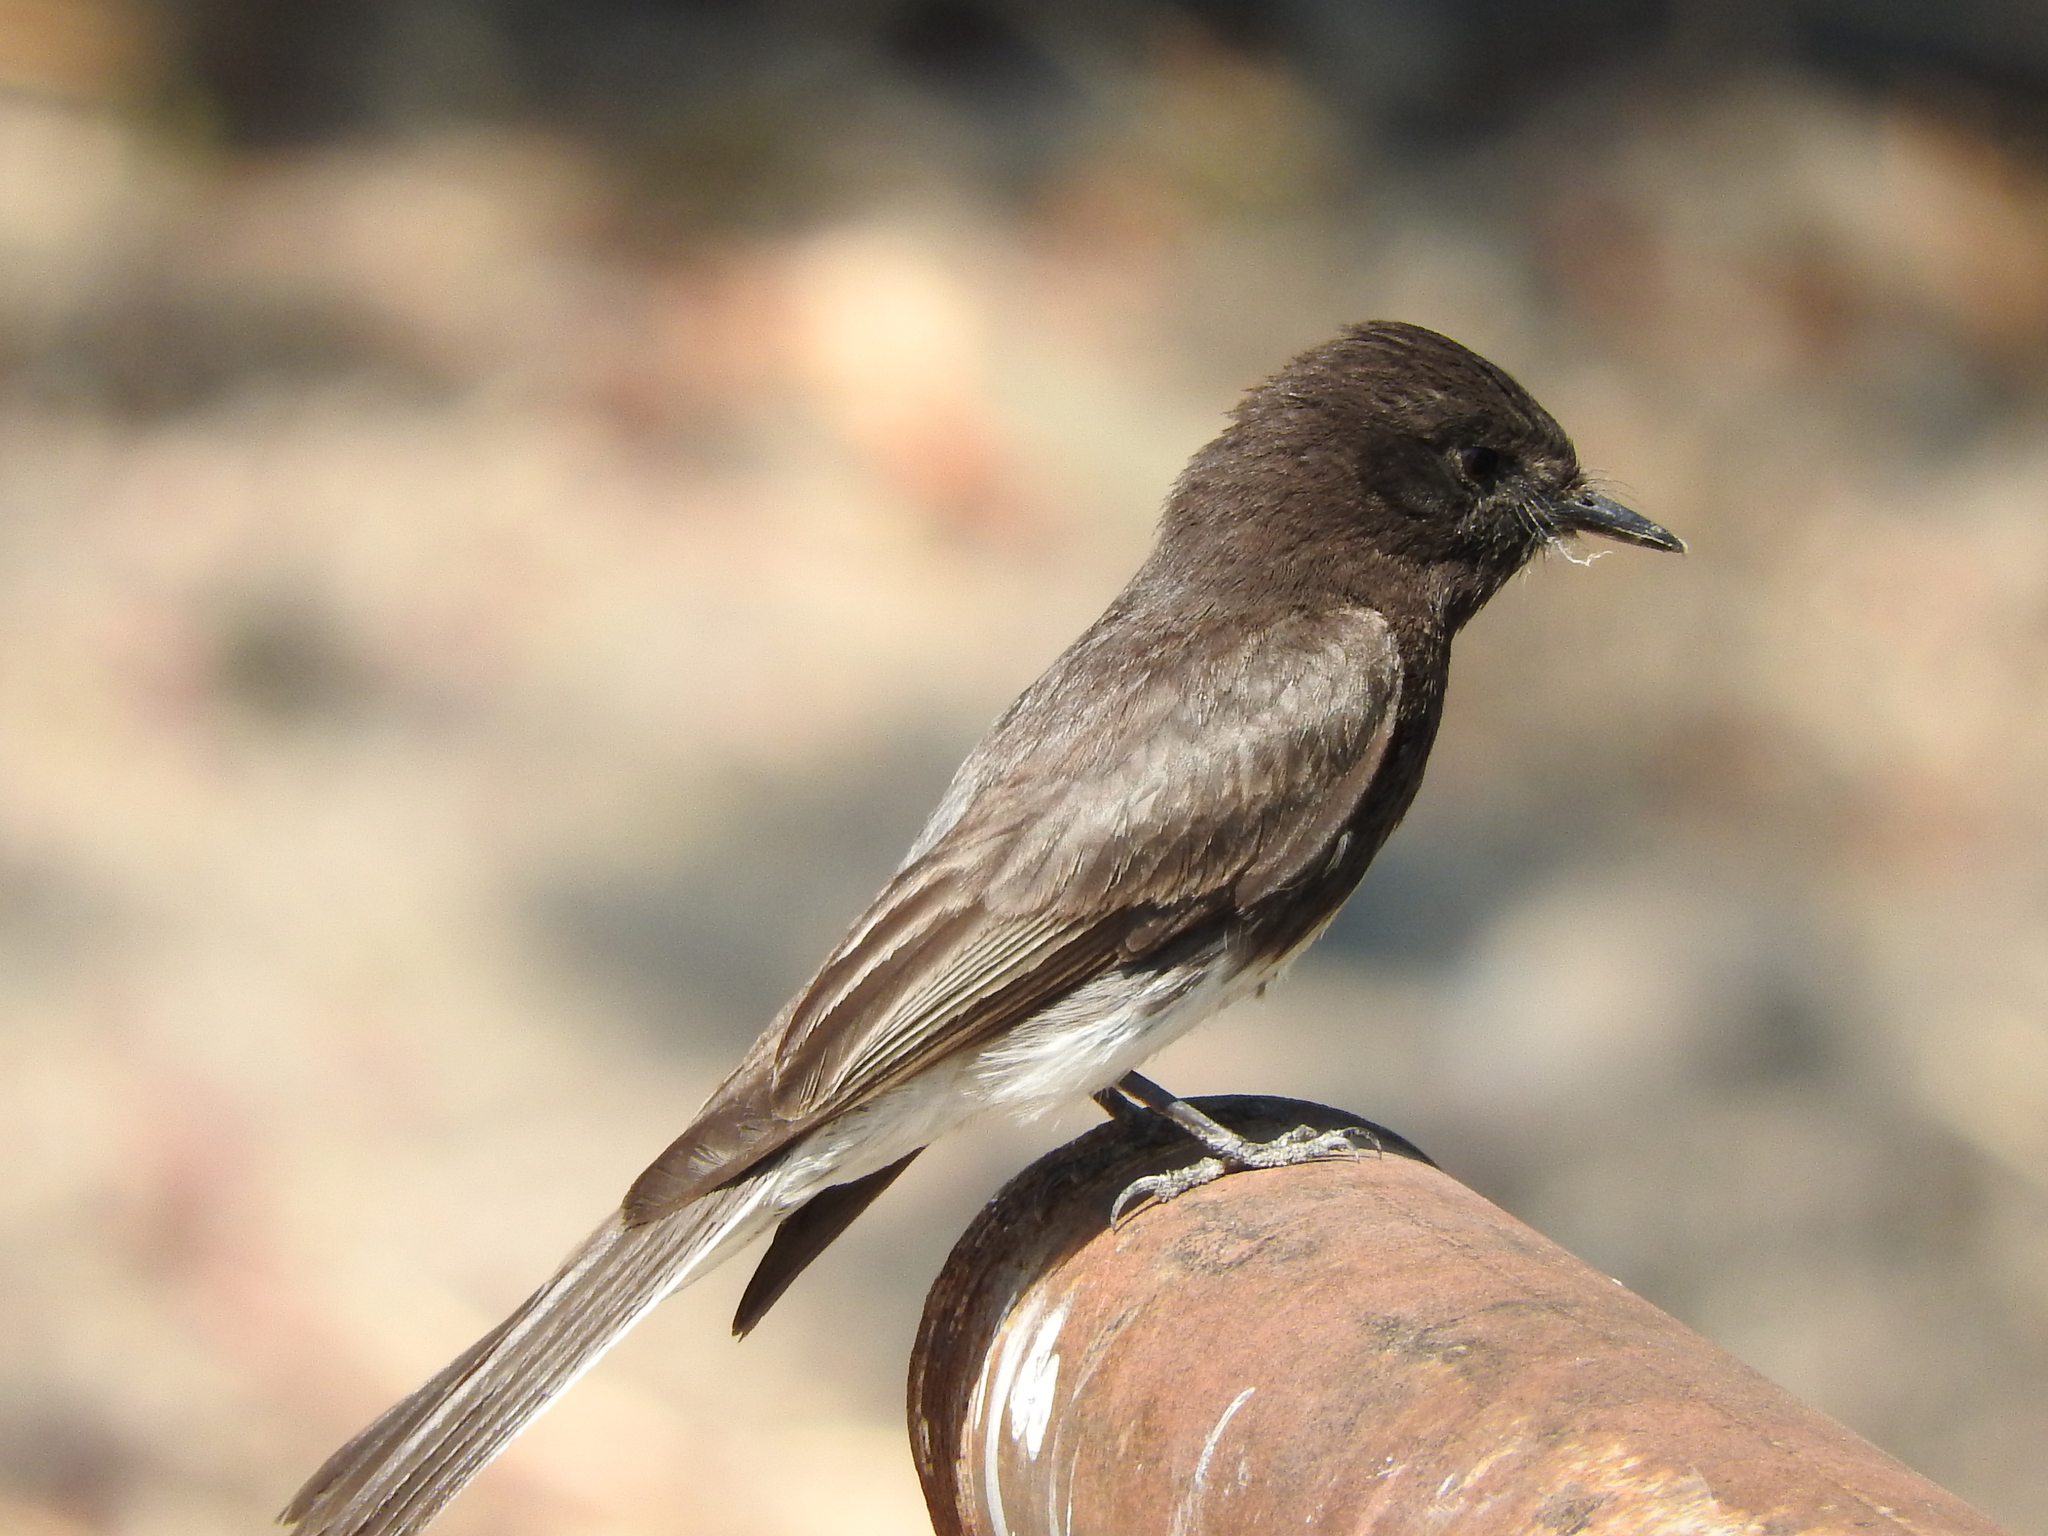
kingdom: Animalia
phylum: Chordata
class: Aves
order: Passeriformes
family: Tyrannidae
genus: Sayornis
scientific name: Sayornis nigricans
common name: Black phoebe
